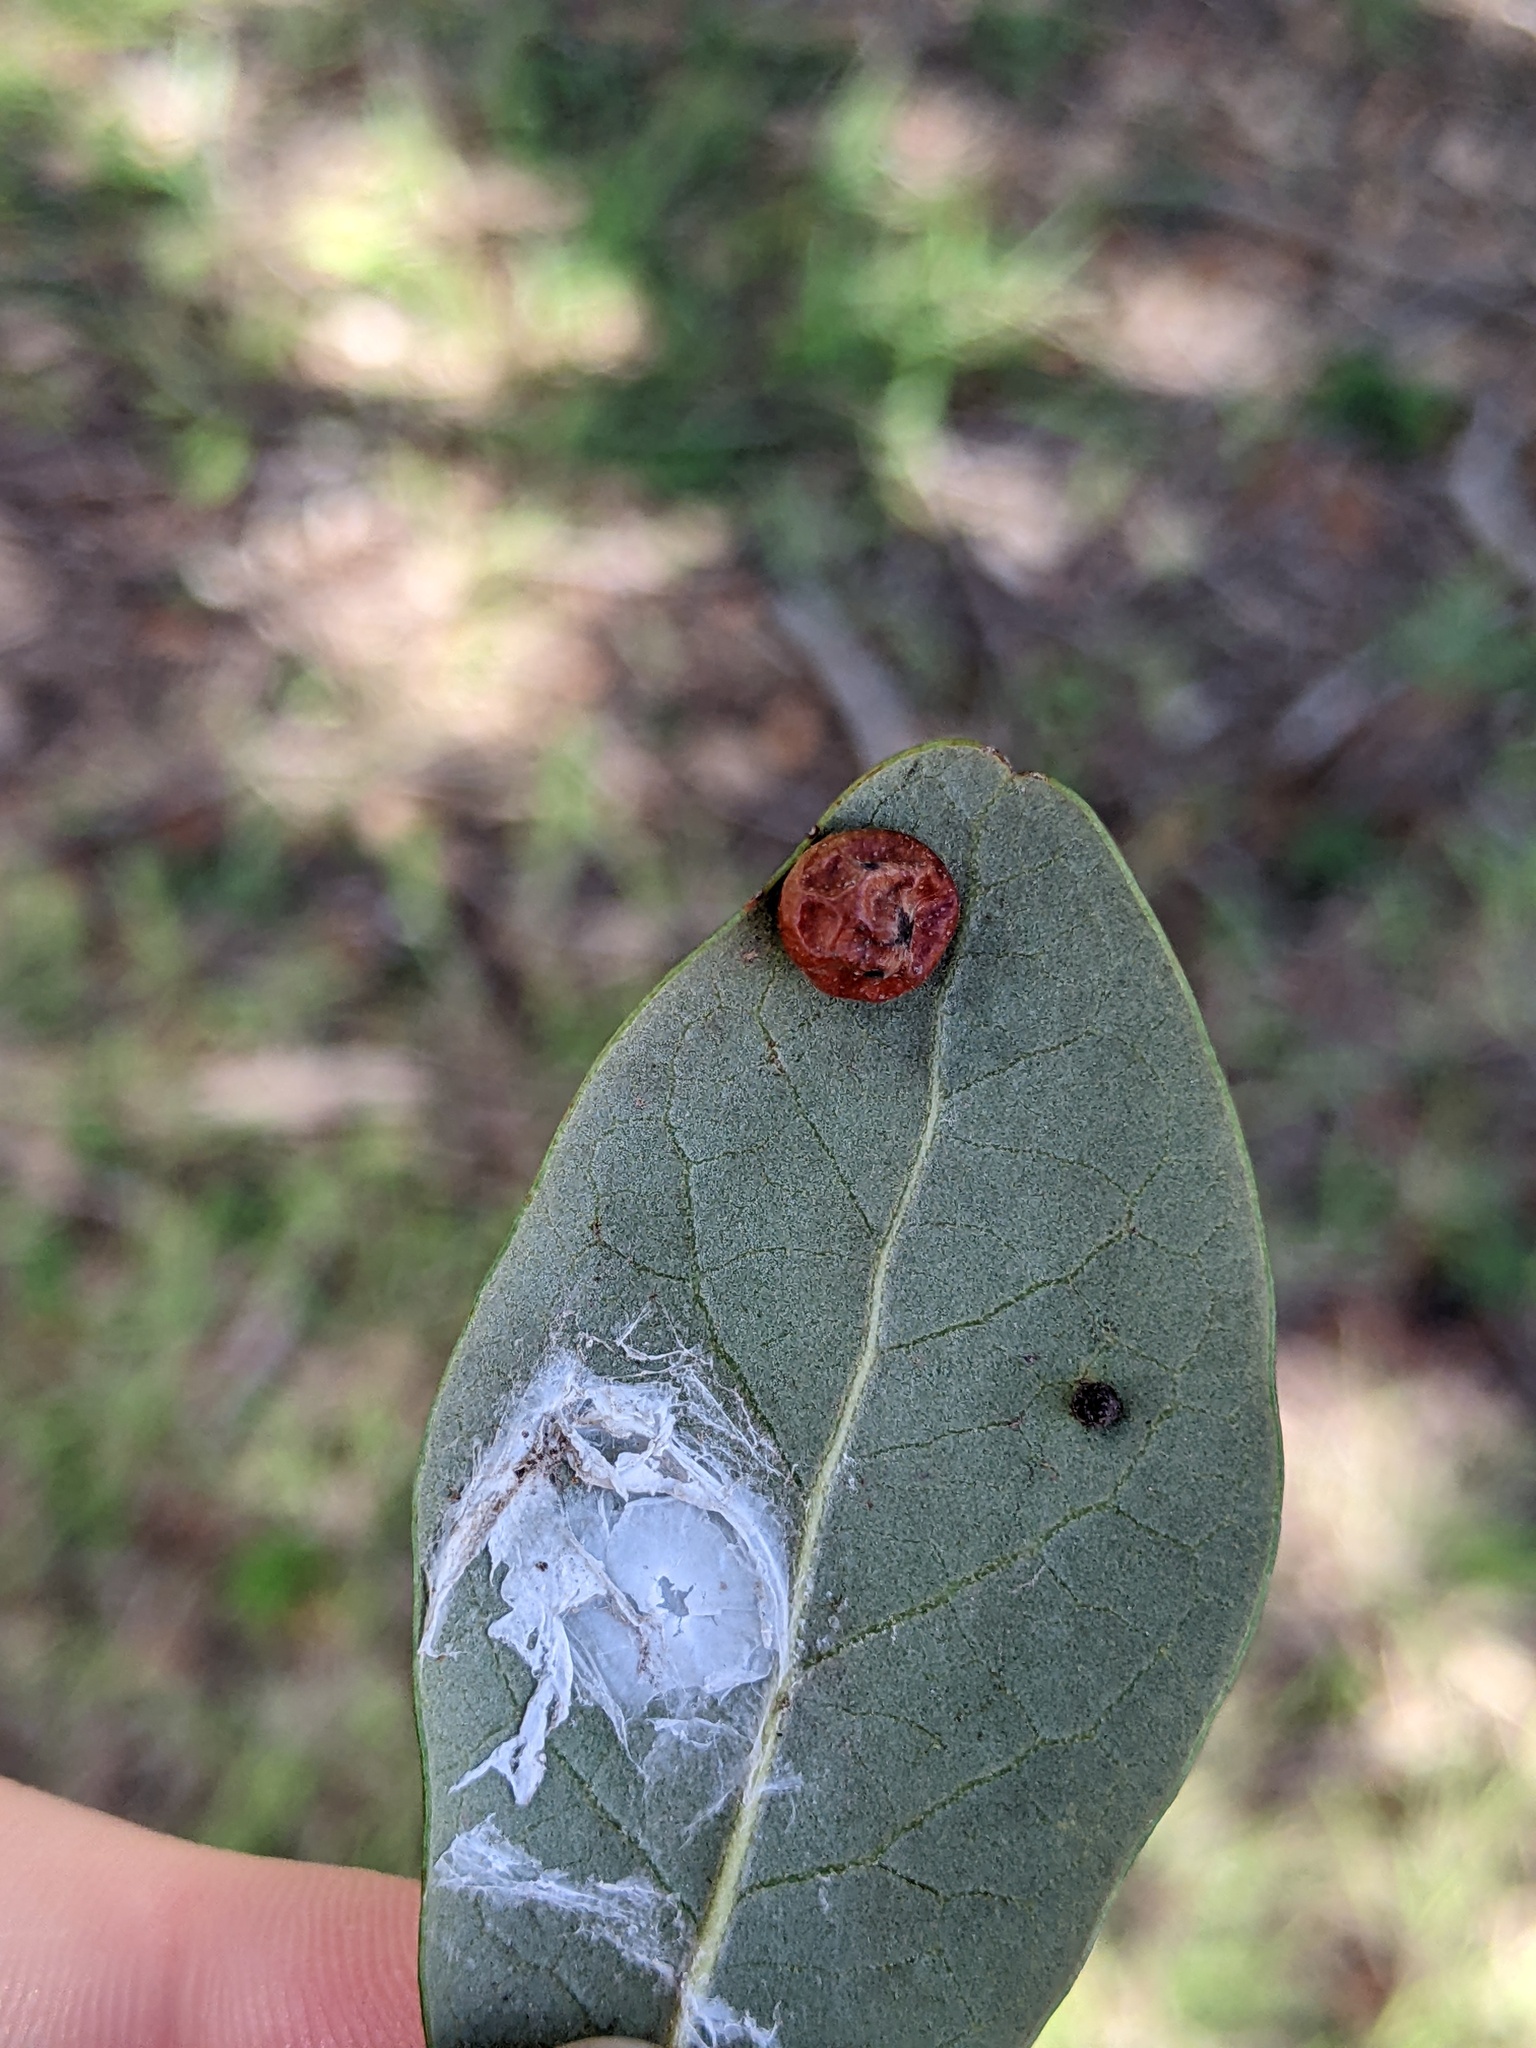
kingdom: Animalia
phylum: Arthropoda
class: Insecta
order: Hymenoptera
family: Cynipidae
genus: Belonocnema
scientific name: Belonocnema kinseyi
